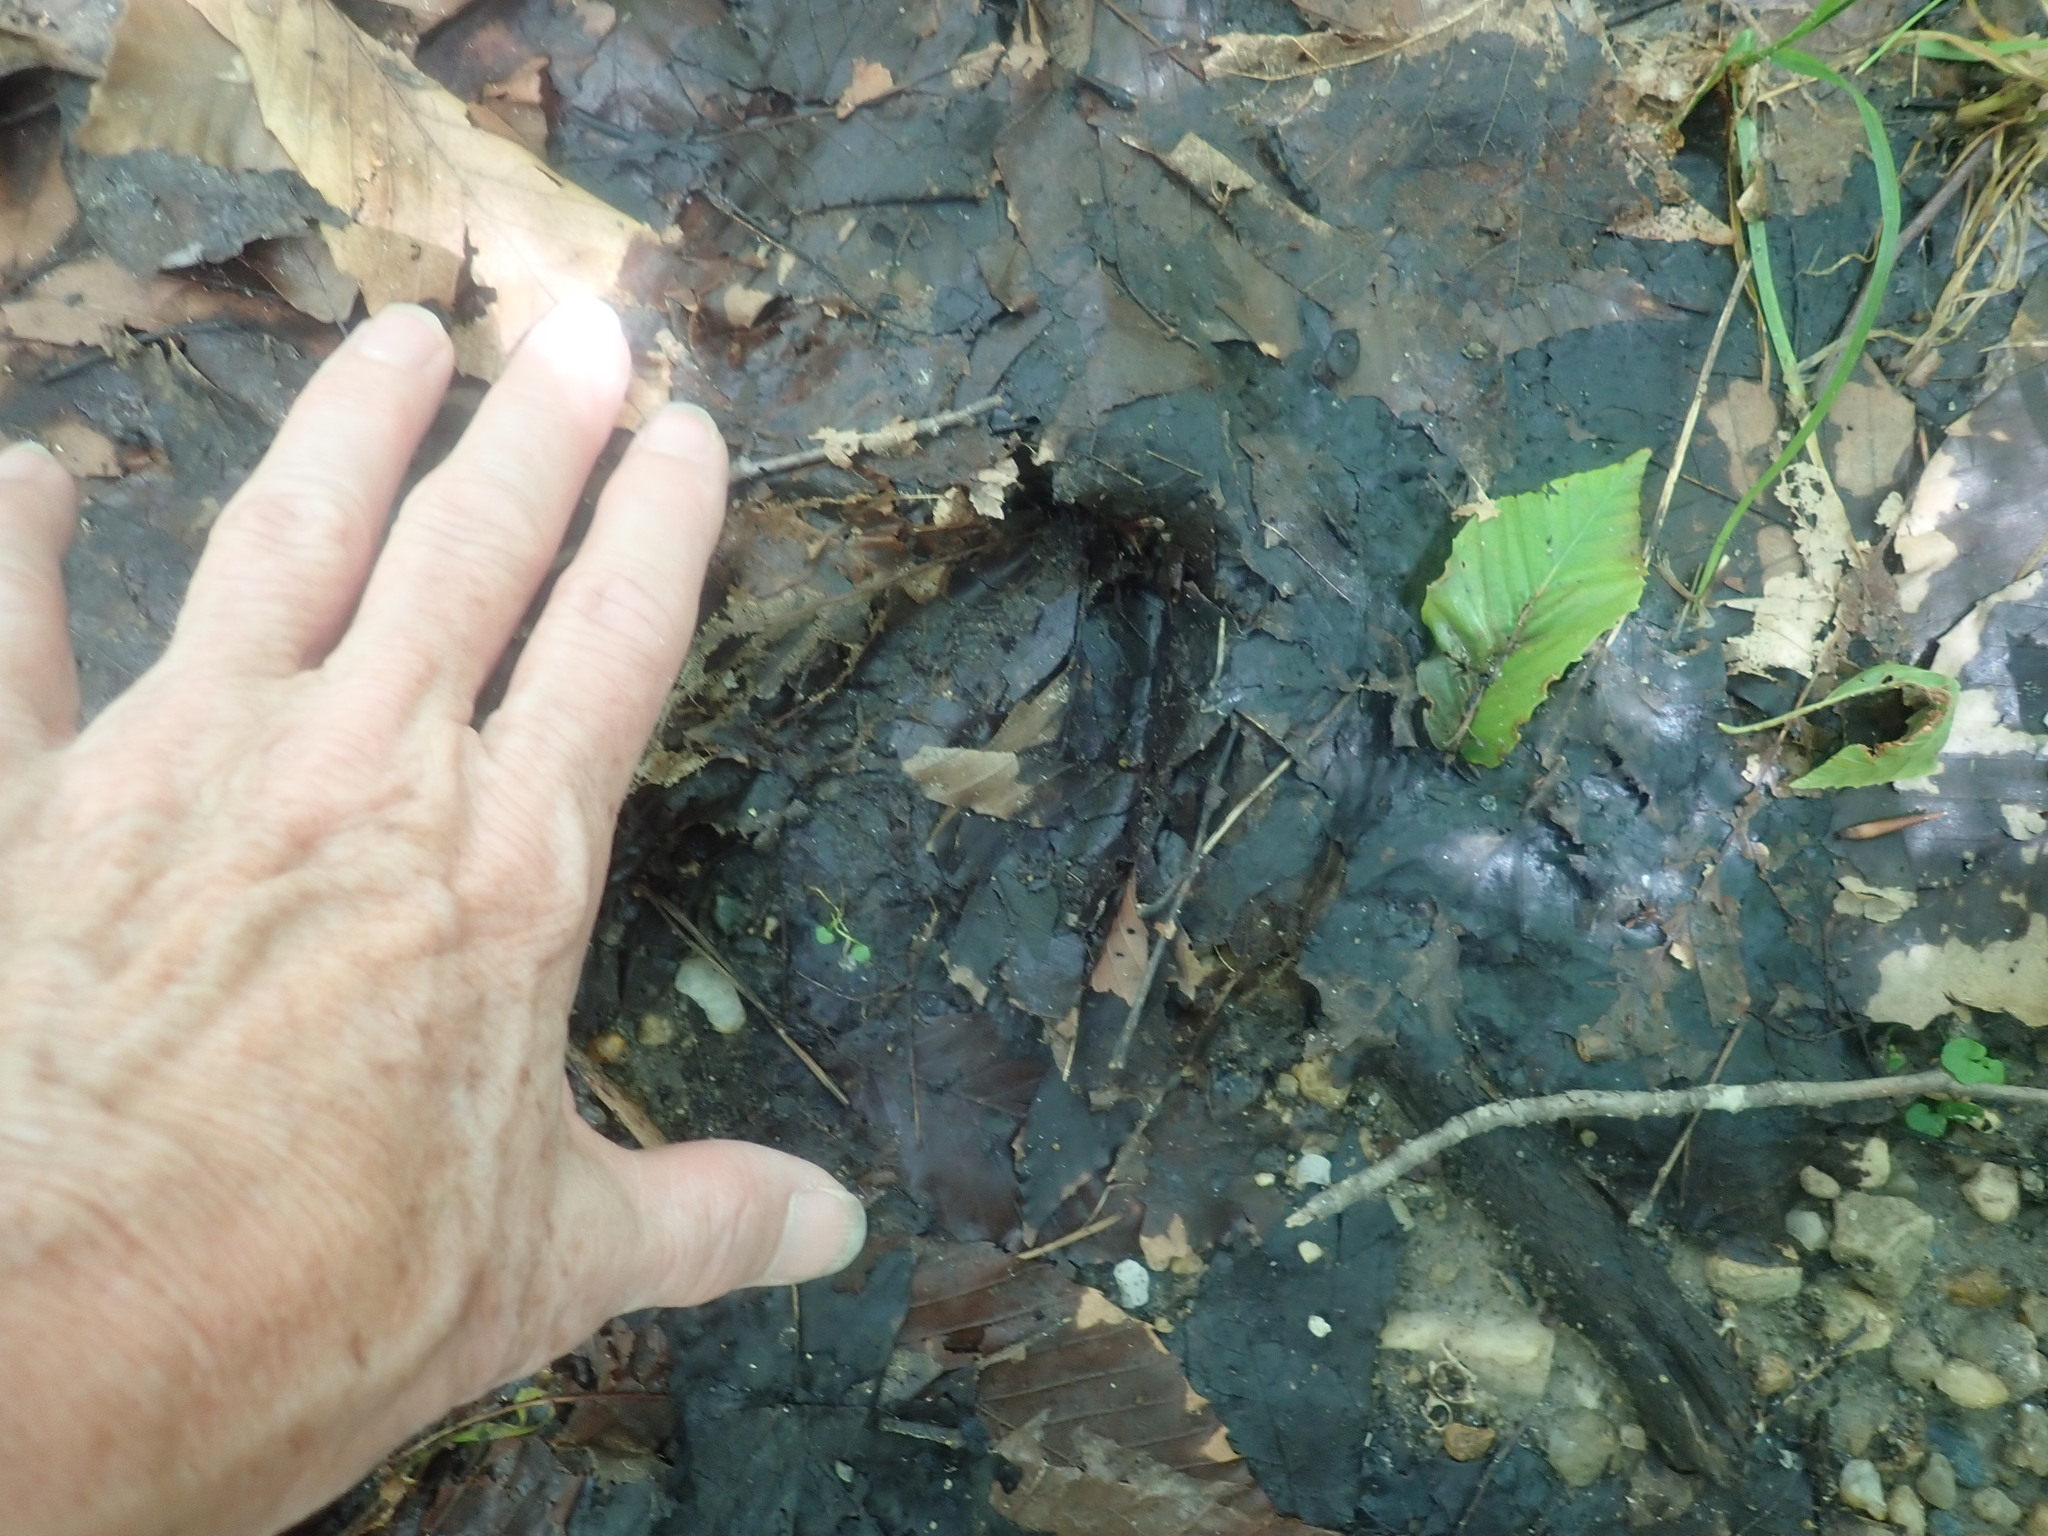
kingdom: Animalia
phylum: Chordata
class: Mammalia
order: Artiodactyla
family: Cervidae
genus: Odocoileus
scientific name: Odocoileus virginianus
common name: White-tailed deer
